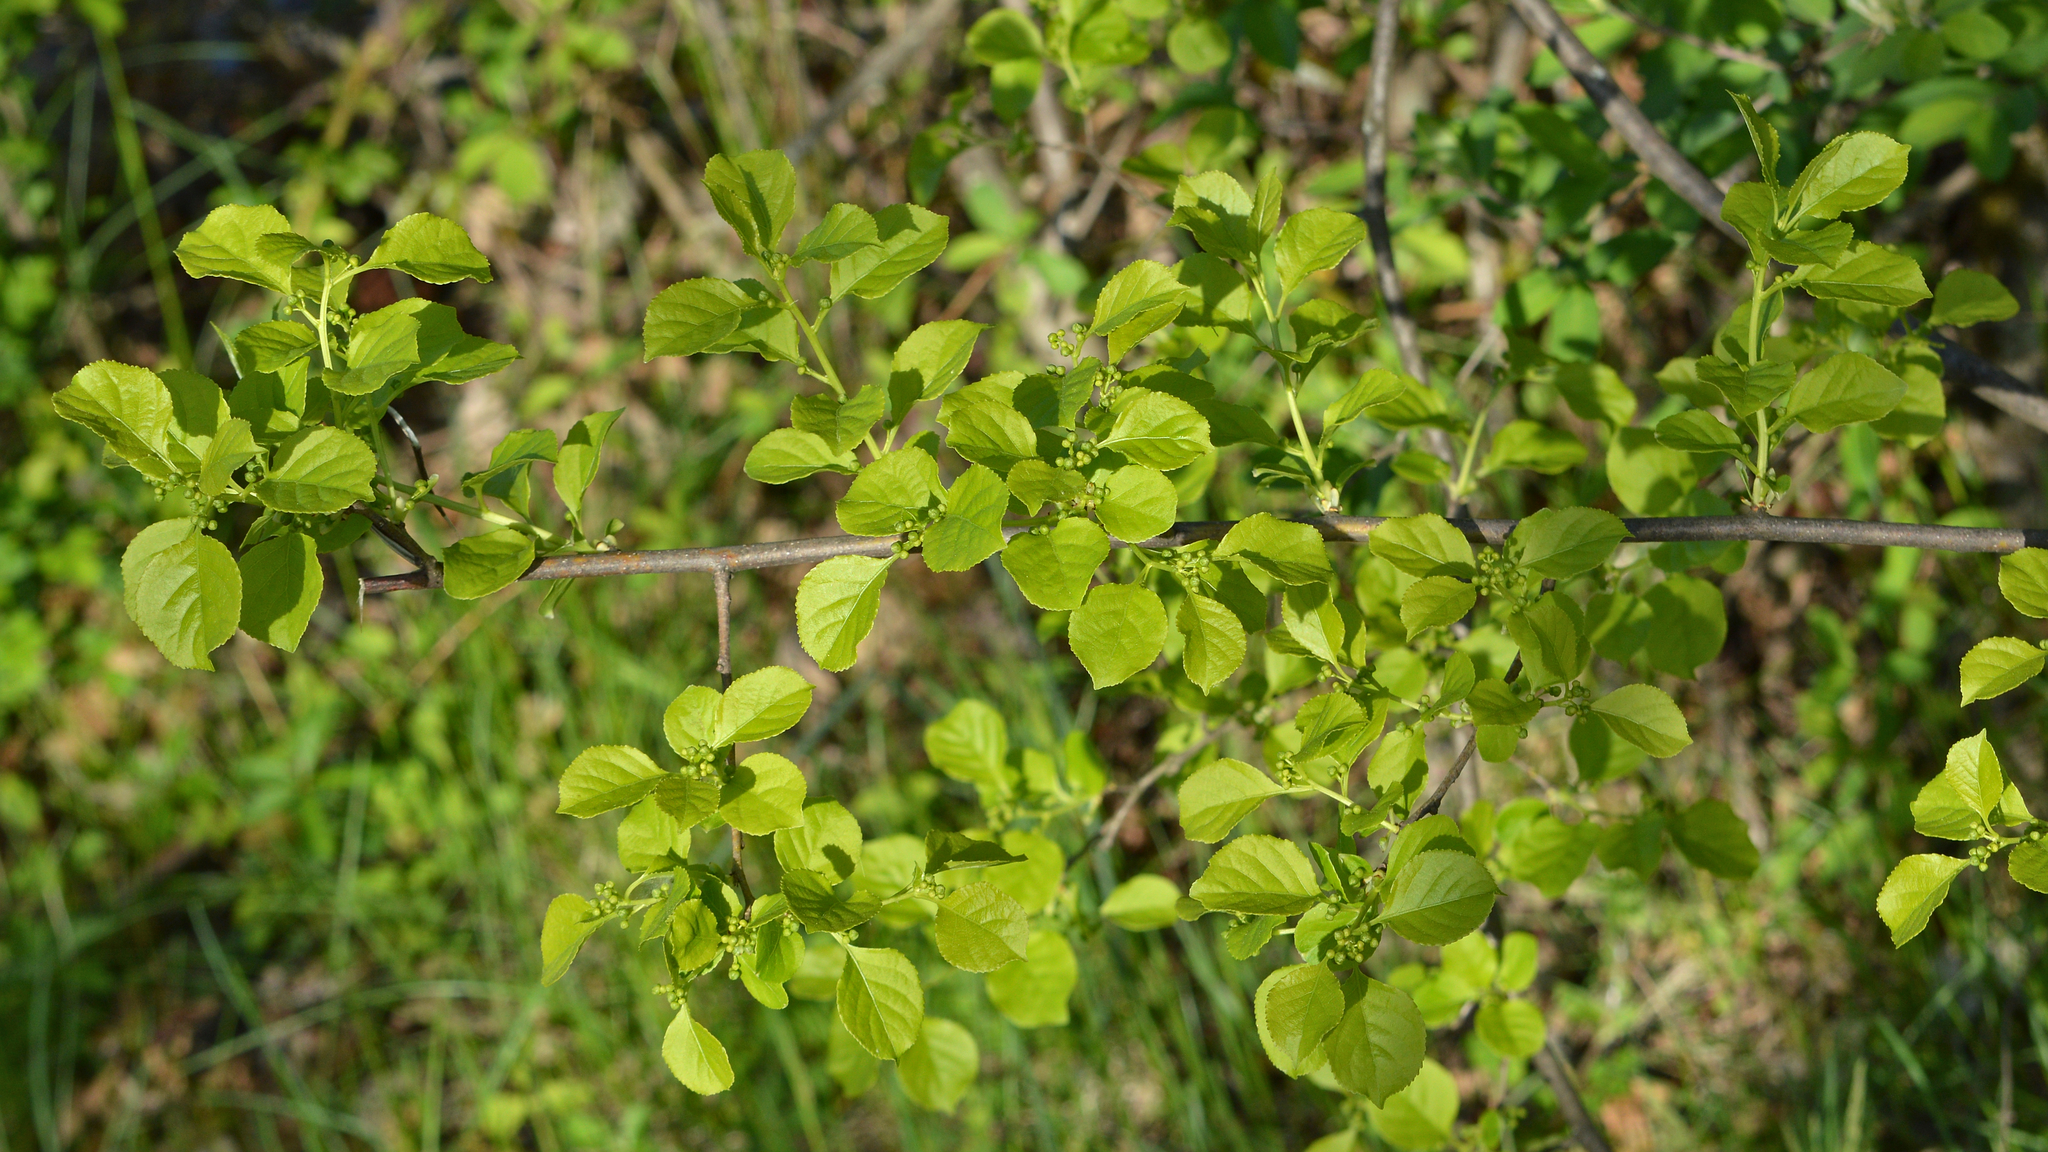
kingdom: Plantae
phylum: Tracheophyta
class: Magnoliopsida
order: Celastrales
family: Celastraceae
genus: Celastrus
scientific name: Celastrus orbiculatus
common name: Oriental bittersweet
